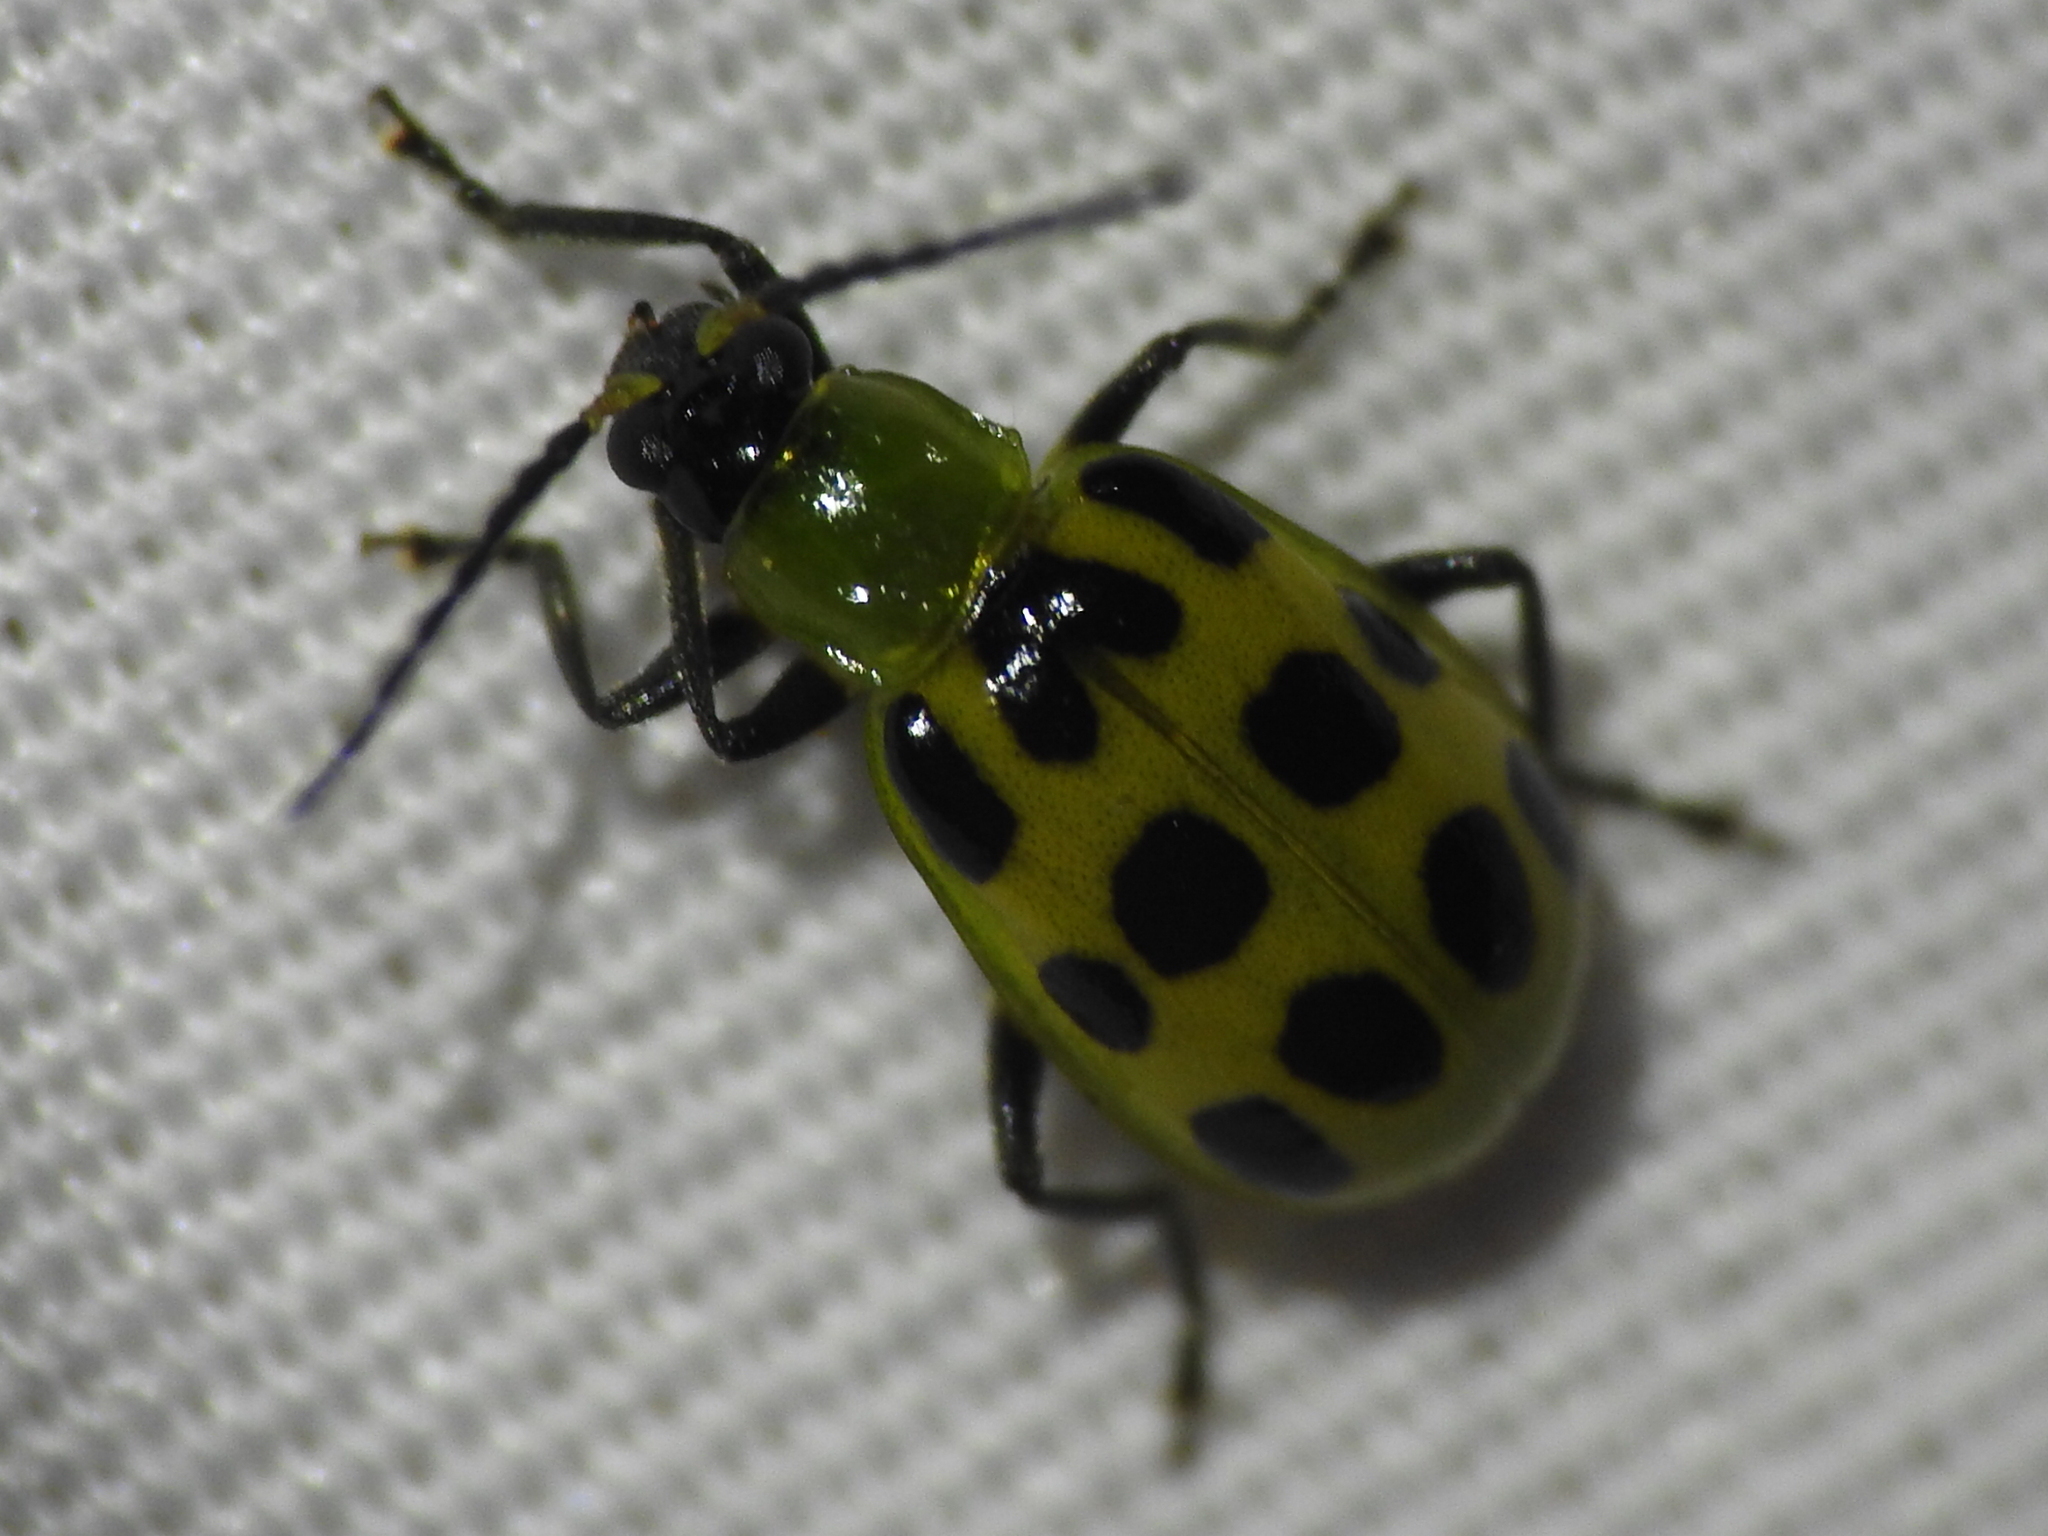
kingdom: Animalia
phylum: Arthropoda
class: Insecta
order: Coleoptera
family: Chrysomelidae
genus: Diabrotica
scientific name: Diabrotica undecimpunctata
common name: Spotted cucumber beetle
